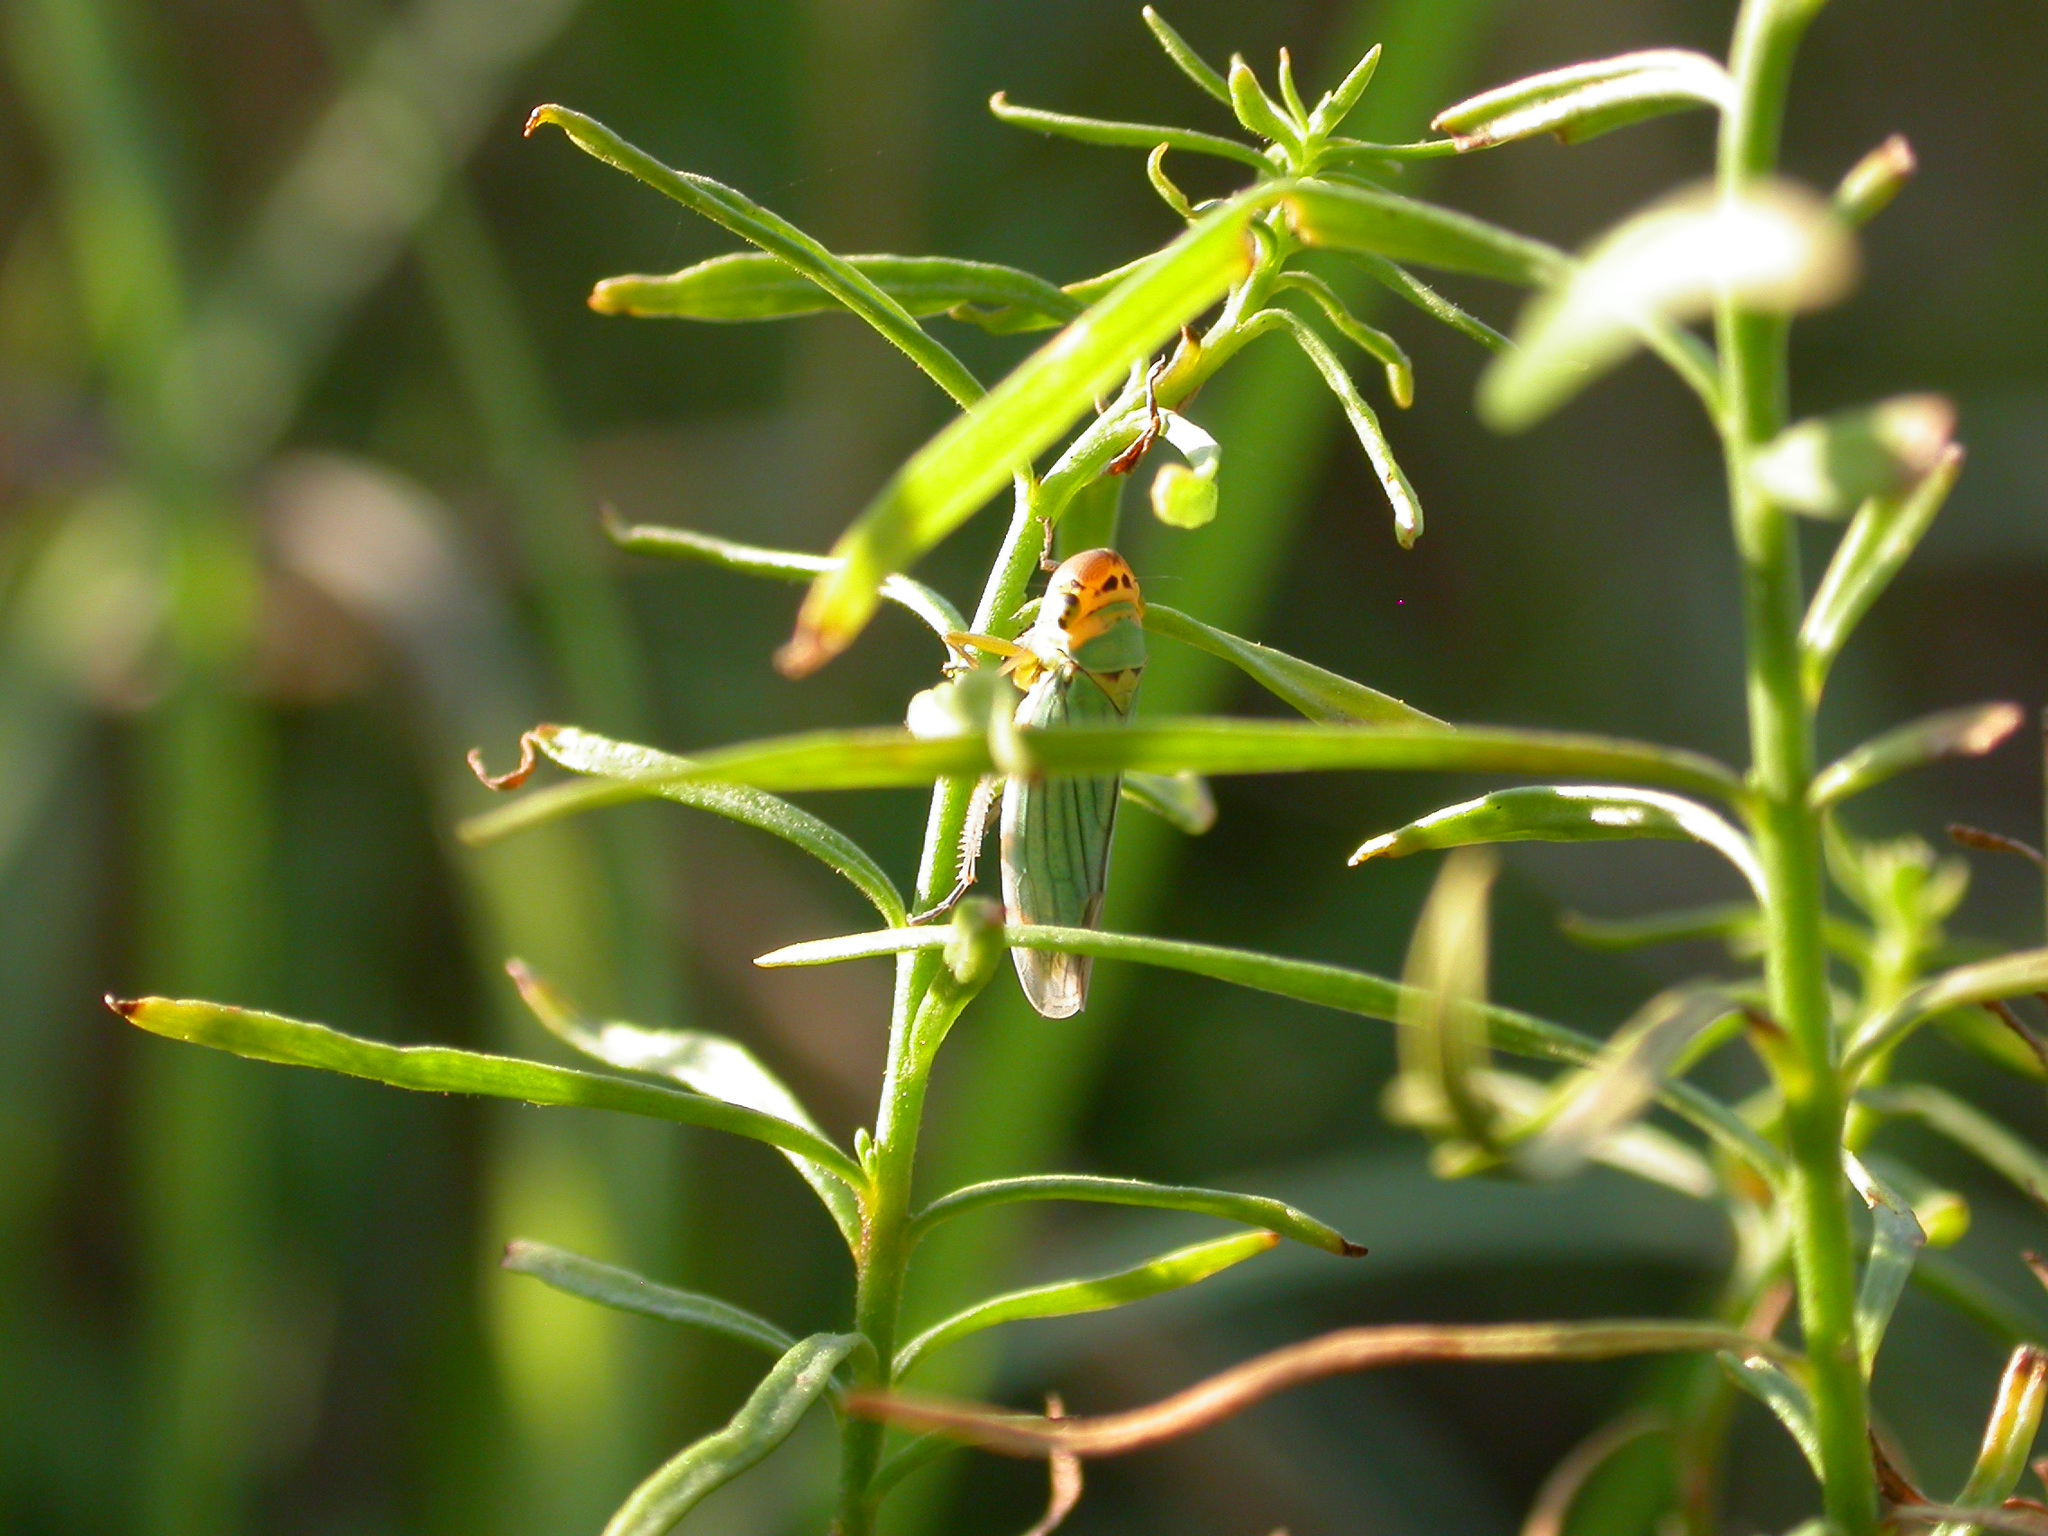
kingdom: Animalia
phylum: Arthropoda
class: Insecta
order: Hemiptera
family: Cicadellidae
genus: Cicadella
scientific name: Cicadella viridis
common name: Leafhopper
